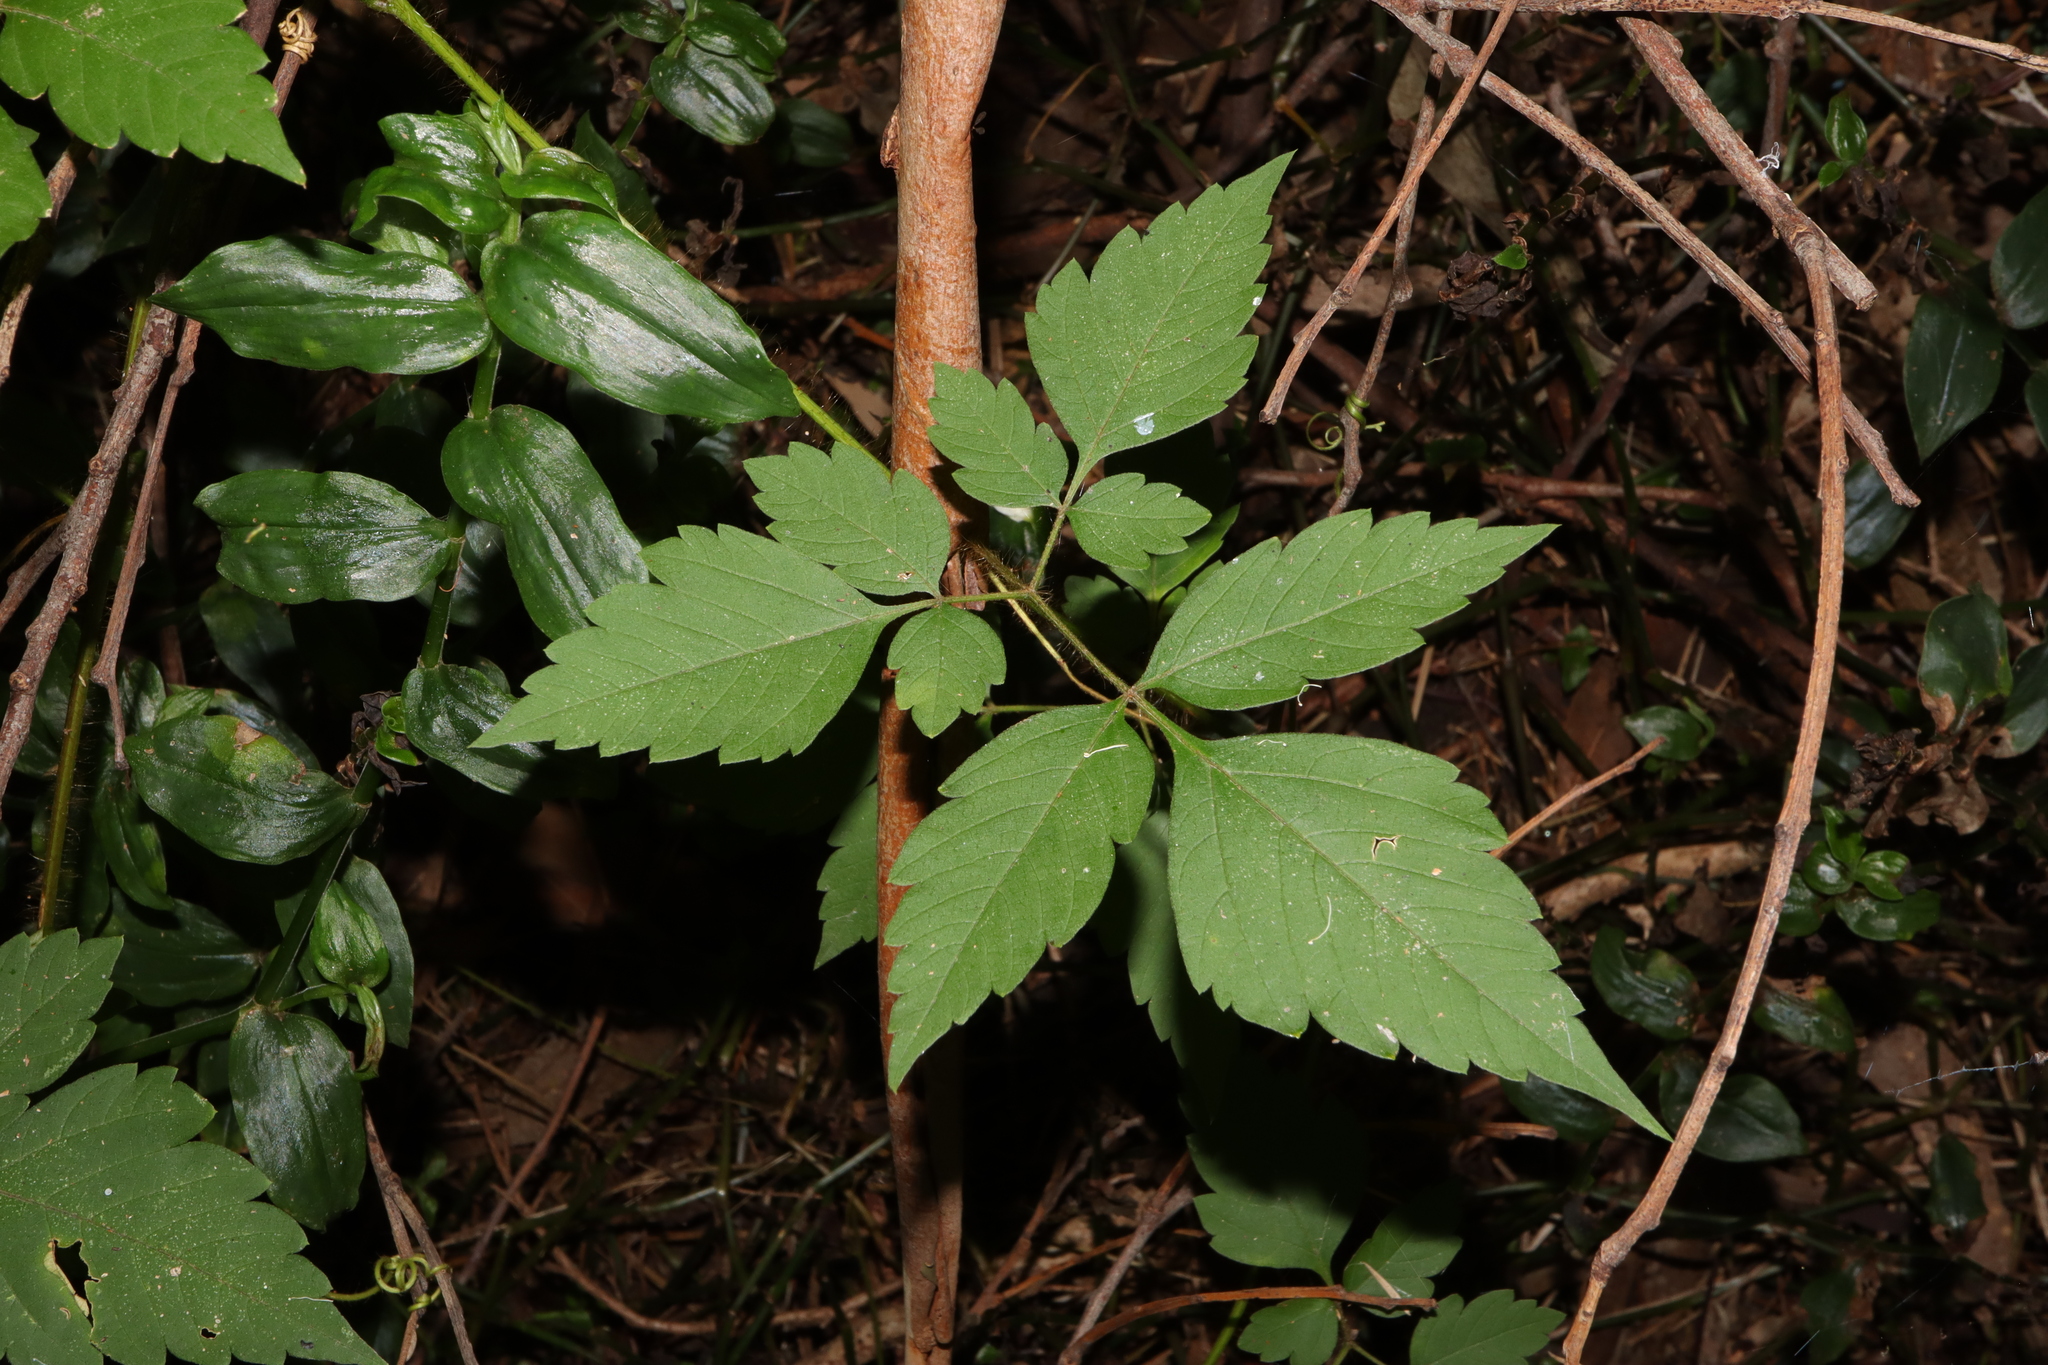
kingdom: Plantae
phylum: Tracheophyta
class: Magnoliopsida
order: Sapindales
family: Sapindaceae
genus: Cardiospermum
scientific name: Cardiospermum grandiflorum
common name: Balloon vine
